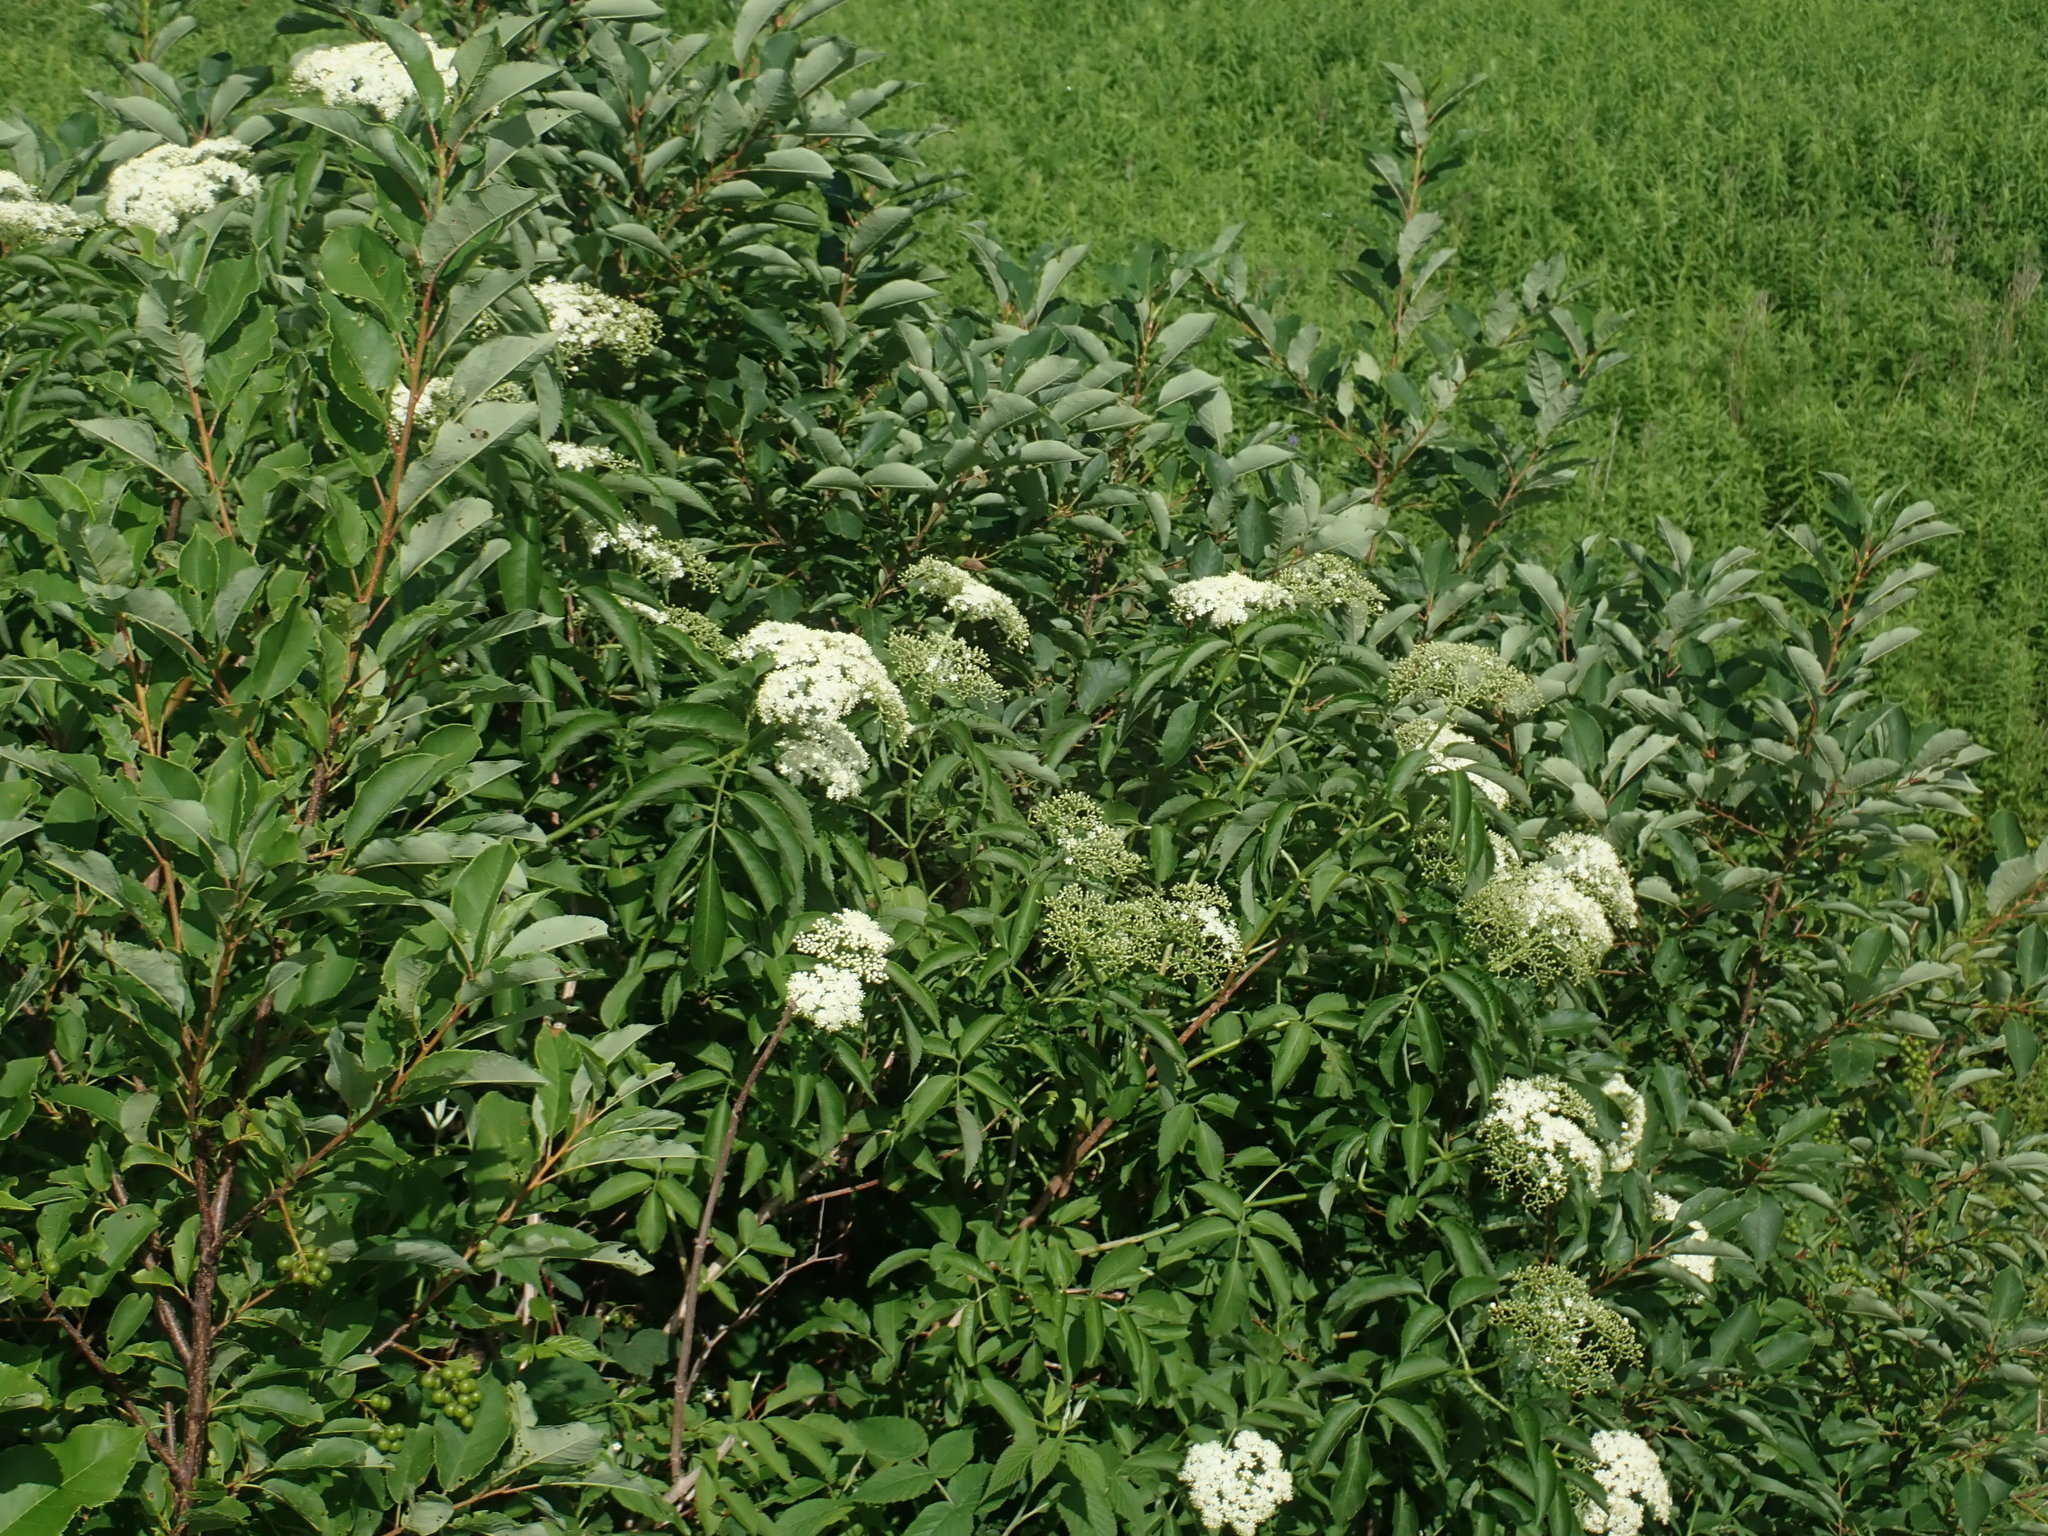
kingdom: Plantae
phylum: Tracheophyta
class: Magnoliopsida
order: Dipsacales
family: Viburnaceae
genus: Sambucus
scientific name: Sambucus canadensis
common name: American elder
